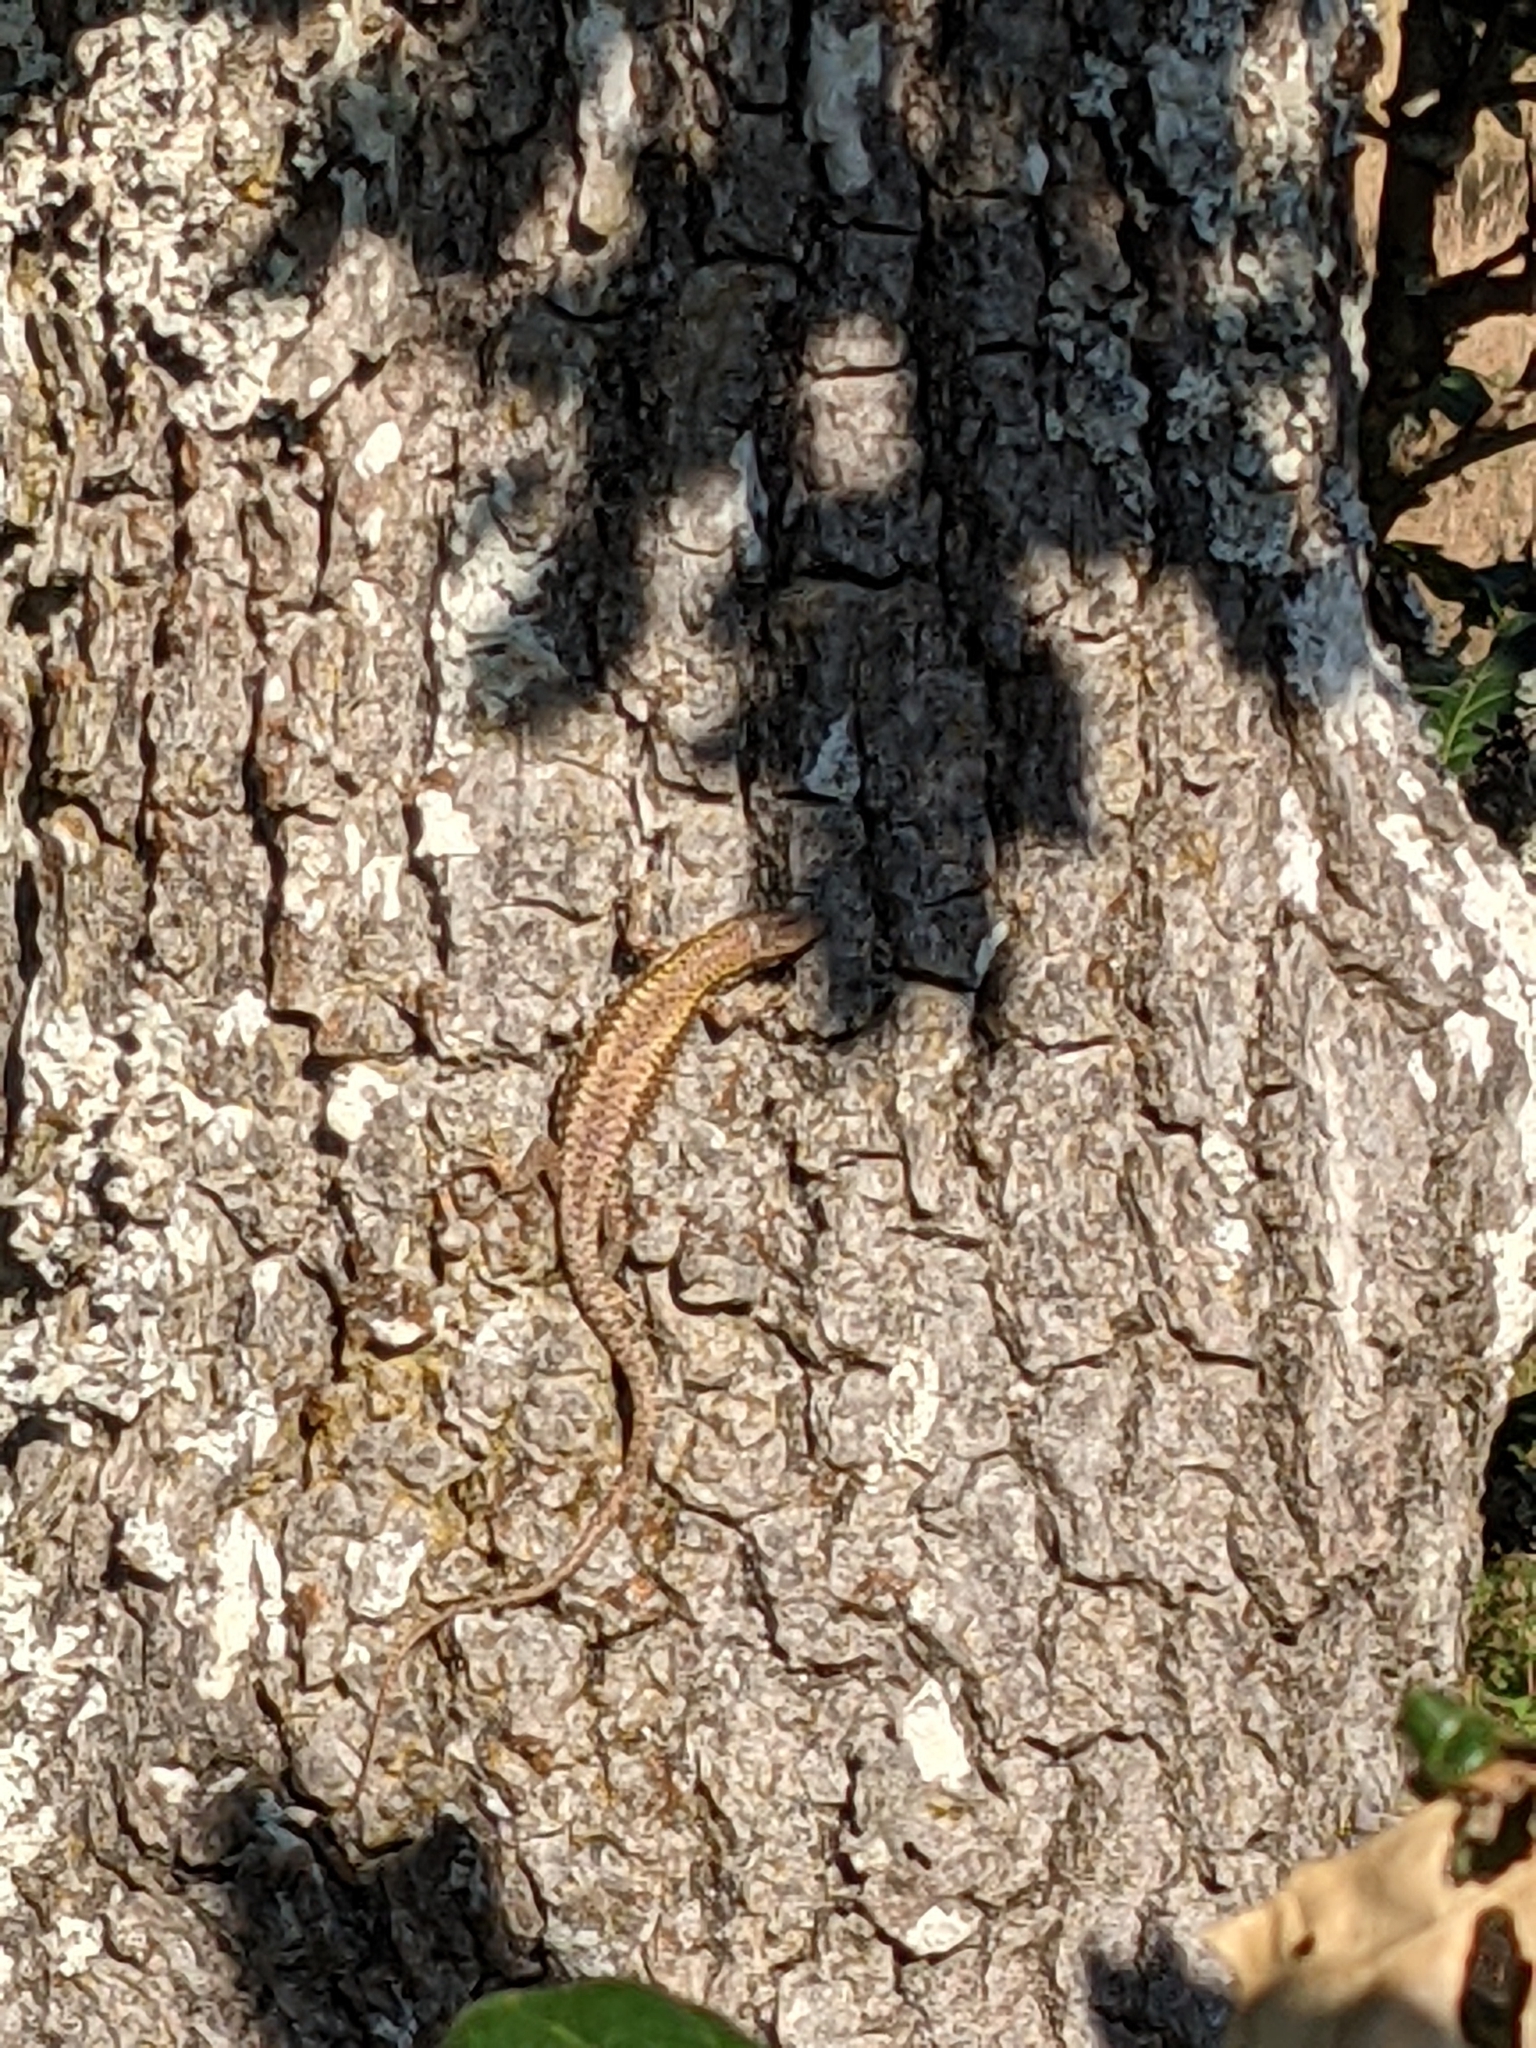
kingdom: Animalia
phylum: Chordata
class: Squamata
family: Lacertidae
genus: Podarcis
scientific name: Podarcis muralis
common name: Common wall lizard
